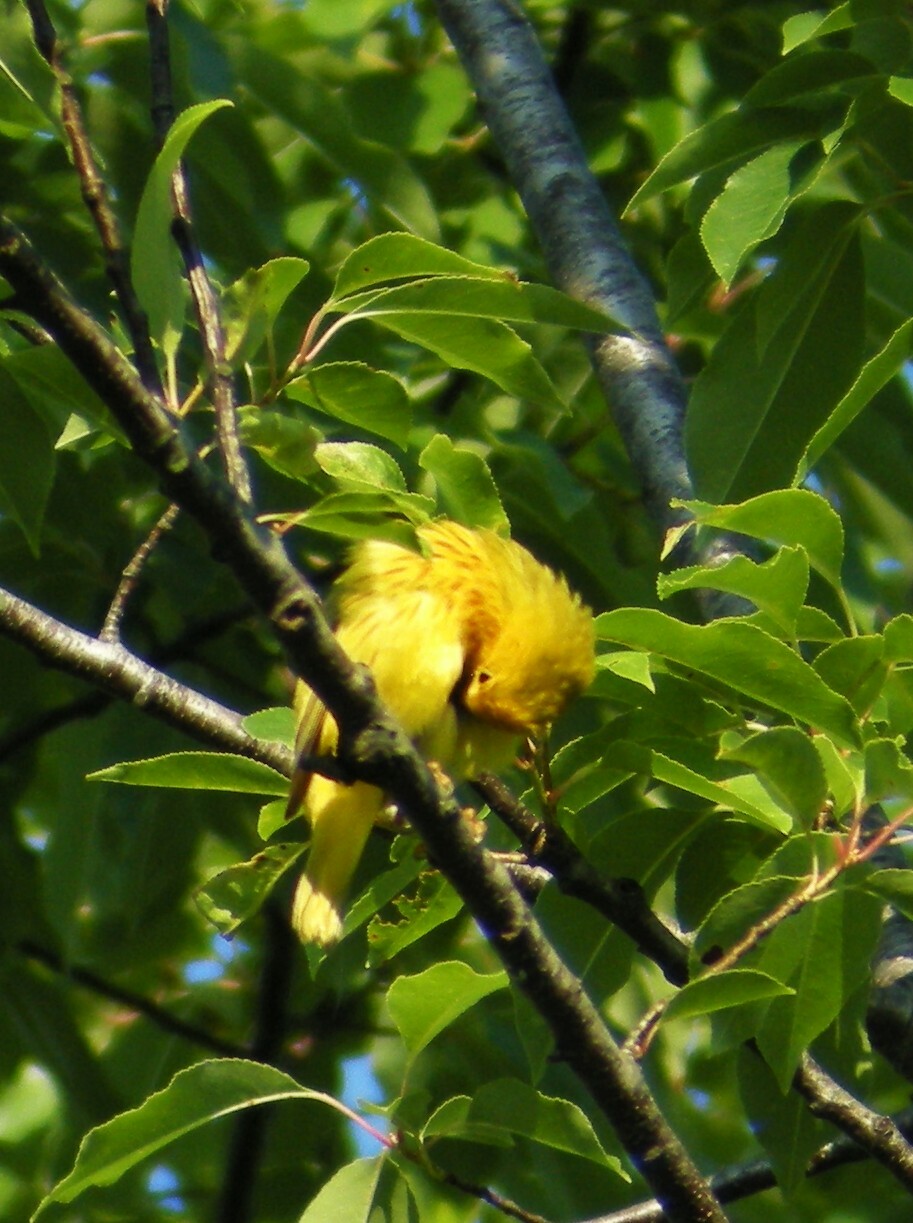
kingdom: Animalia
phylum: Chordata
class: Aves
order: Passeriformes
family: Parulidae
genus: Setophaga
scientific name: Setophaga petechia
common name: Yellow warbler
